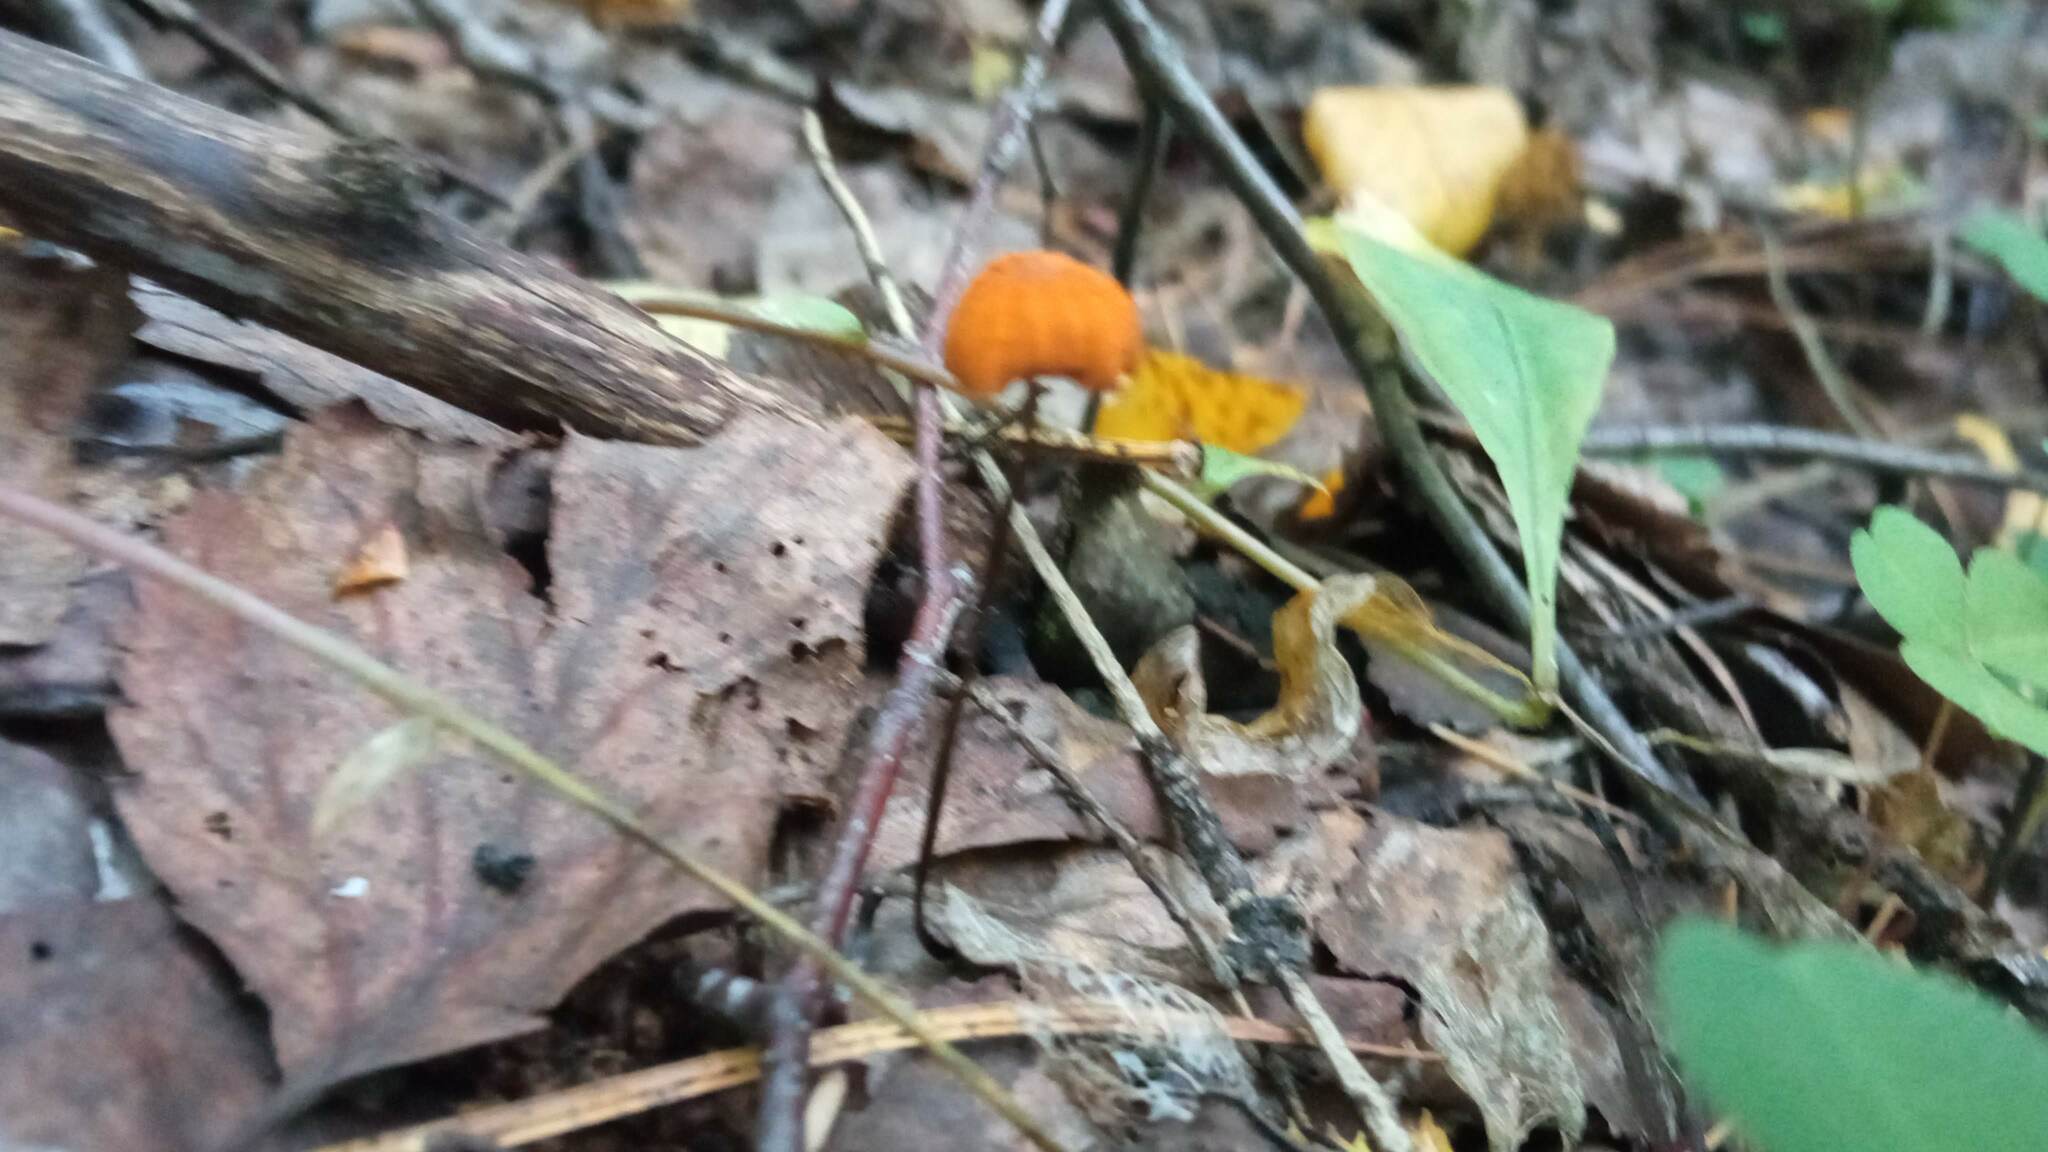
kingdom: Fungi
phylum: Basidiomycota
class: Agaricomycetes
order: Agaricales
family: Marasmiaceae
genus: Marasmius
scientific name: Marasmius siccus
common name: Orange pinwheel
